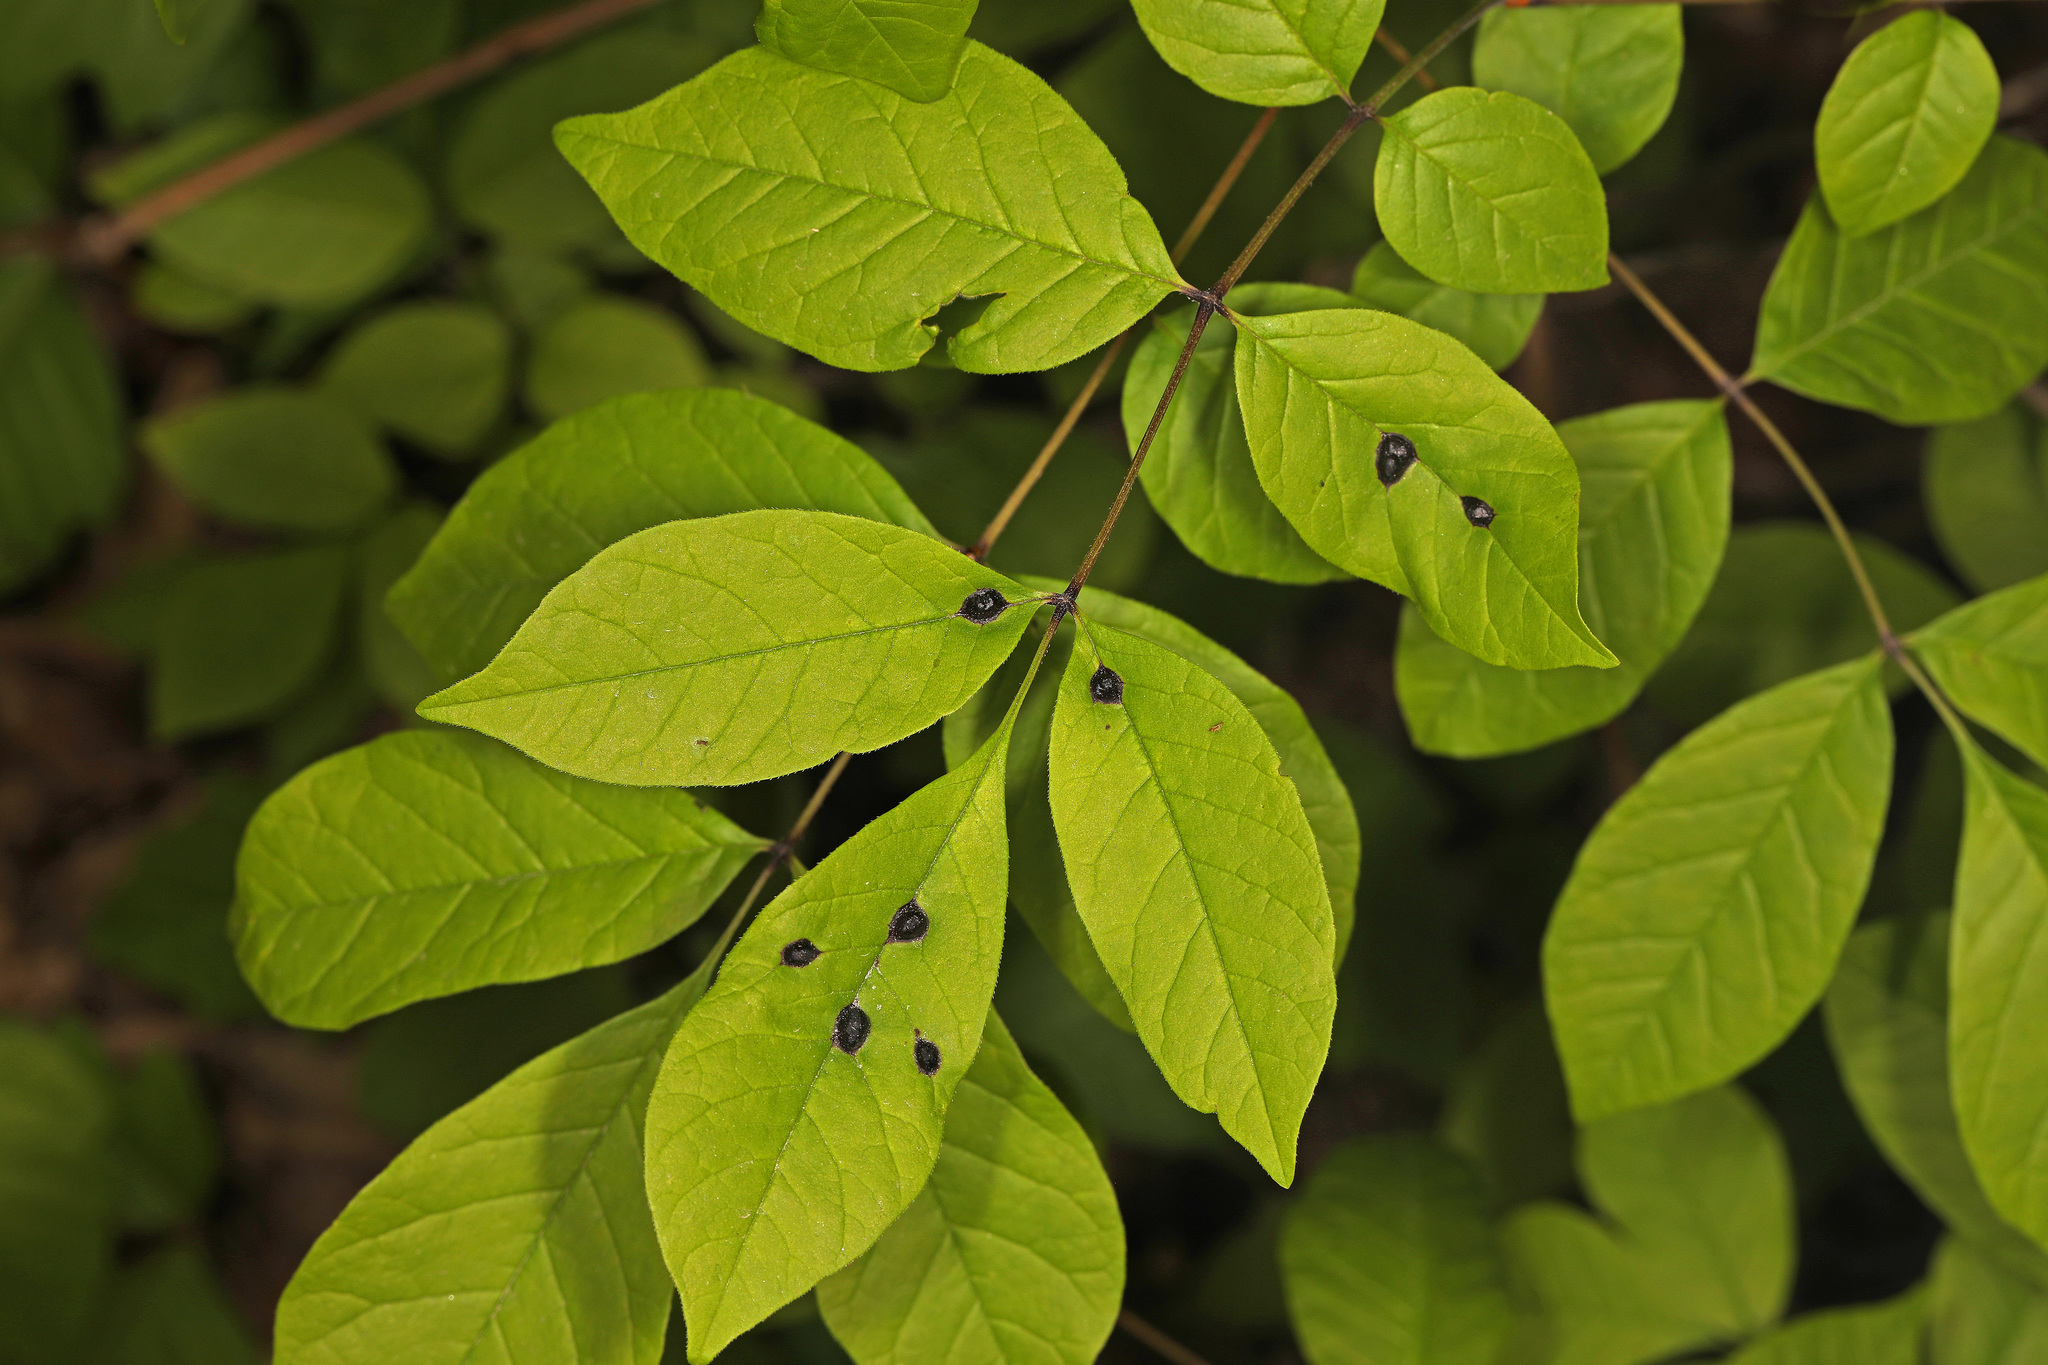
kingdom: Animalia
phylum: Arthropoda
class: Insecta
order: Diptera
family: Cecidomyiidae
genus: Dasineura
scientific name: Dasineura pellex
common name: Ash bullet gall midge
